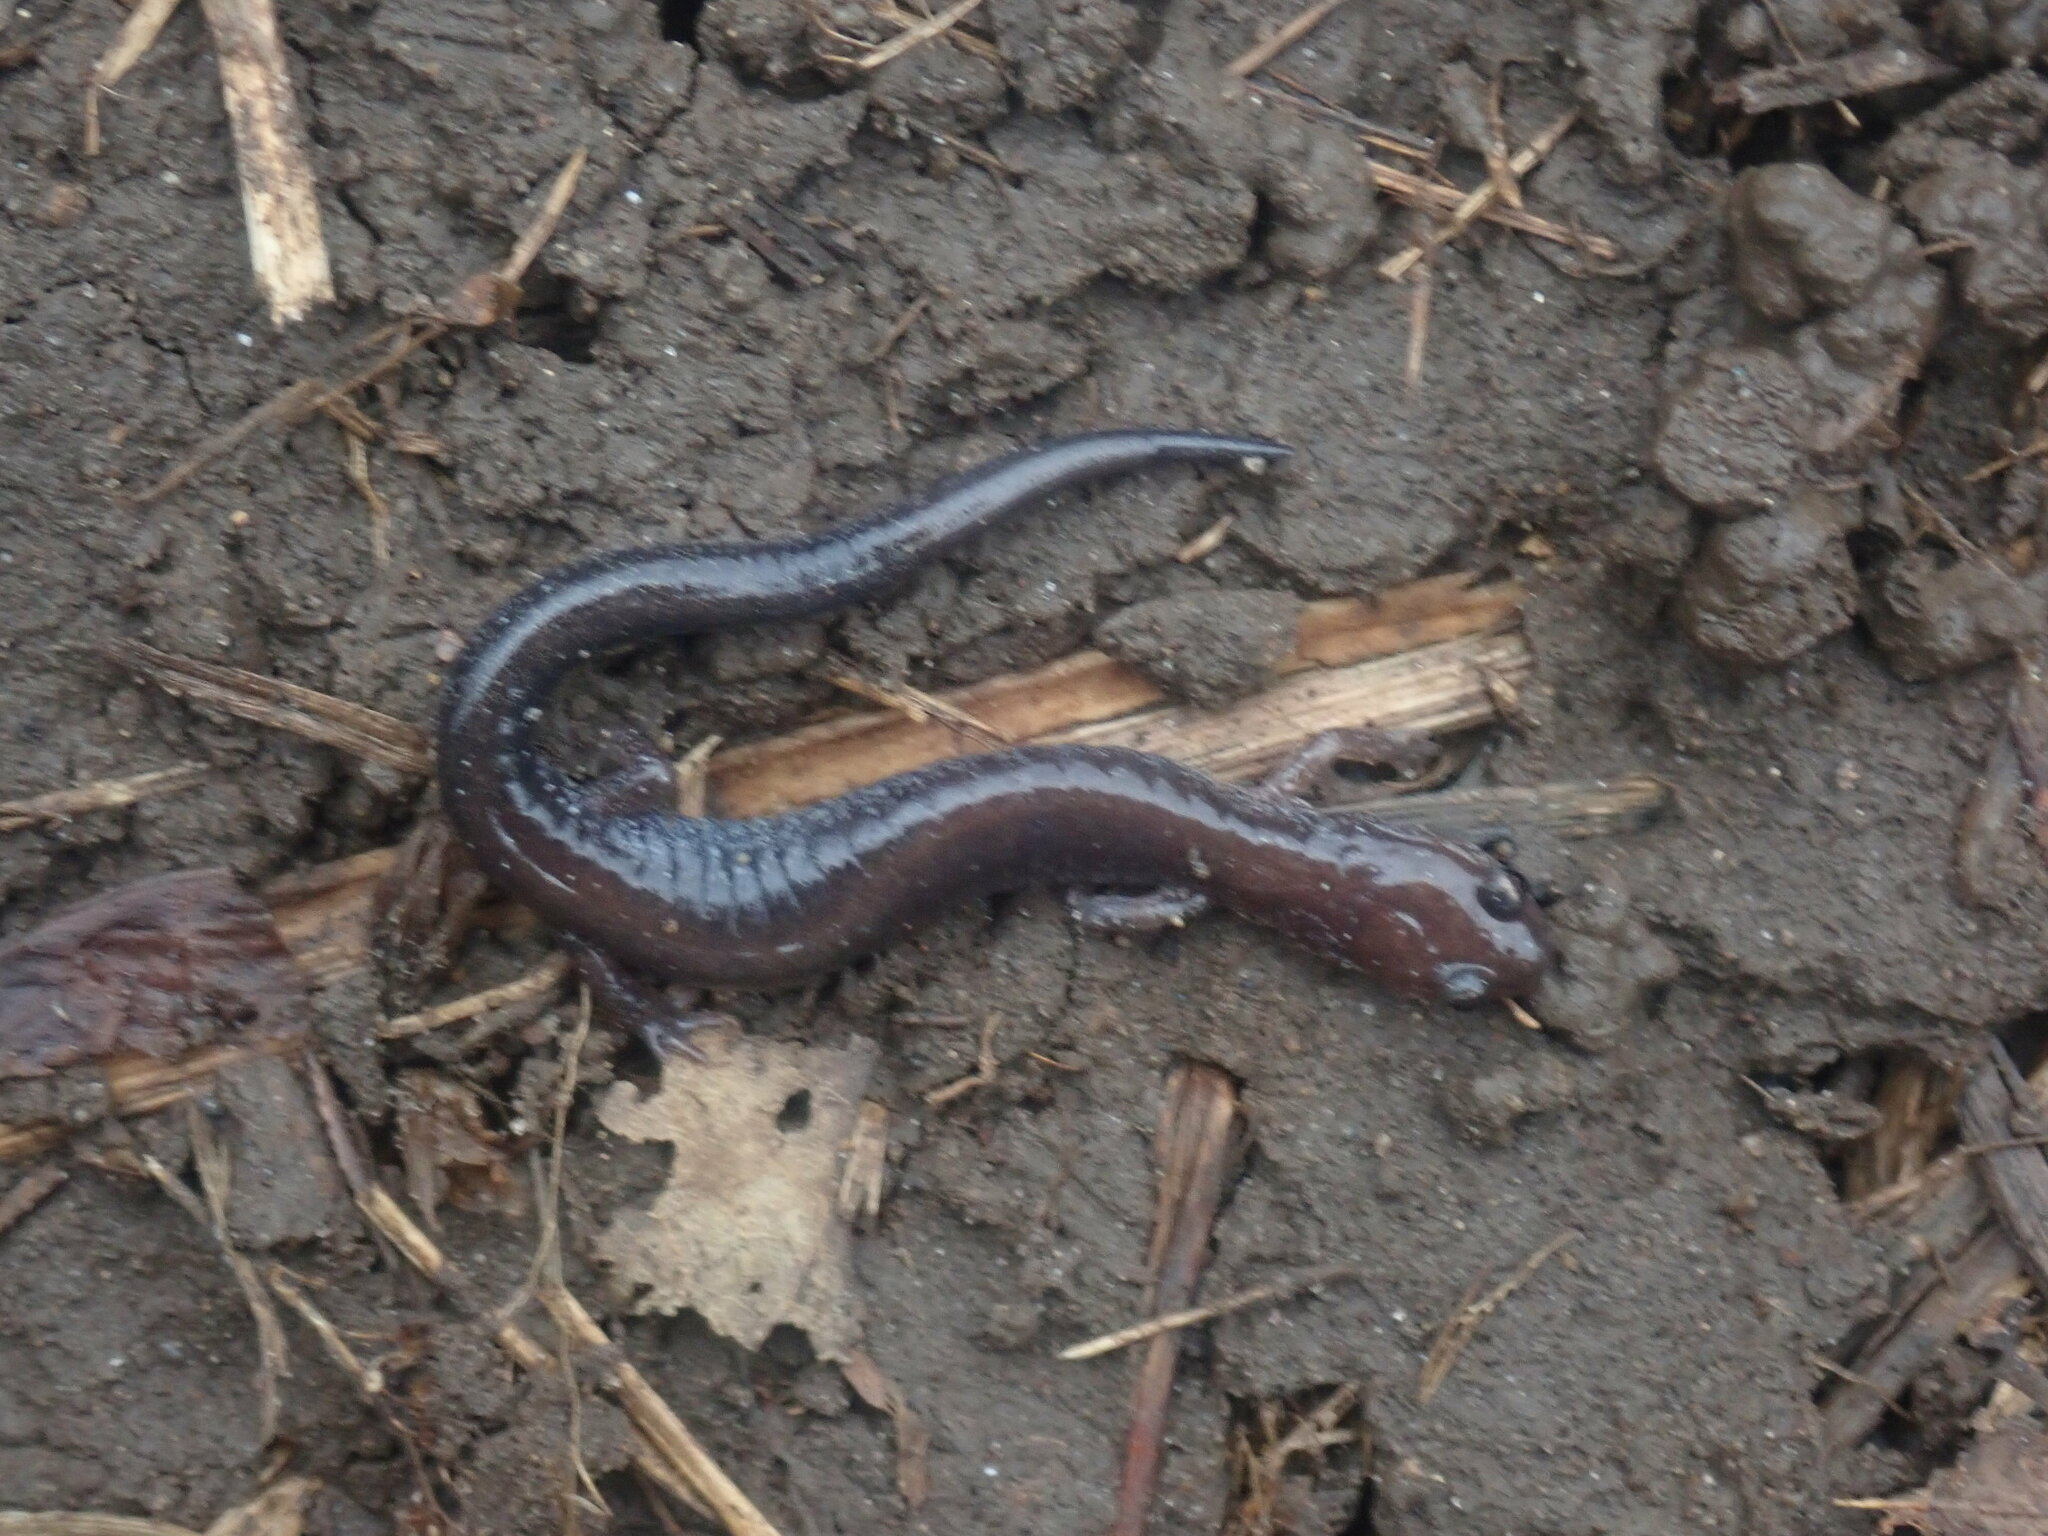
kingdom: Animalia
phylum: Chordata
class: Amphibia
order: Caudata
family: Plethodontidae
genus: Plethodon
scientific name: Plethodon cinereus
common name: Redback salamander
